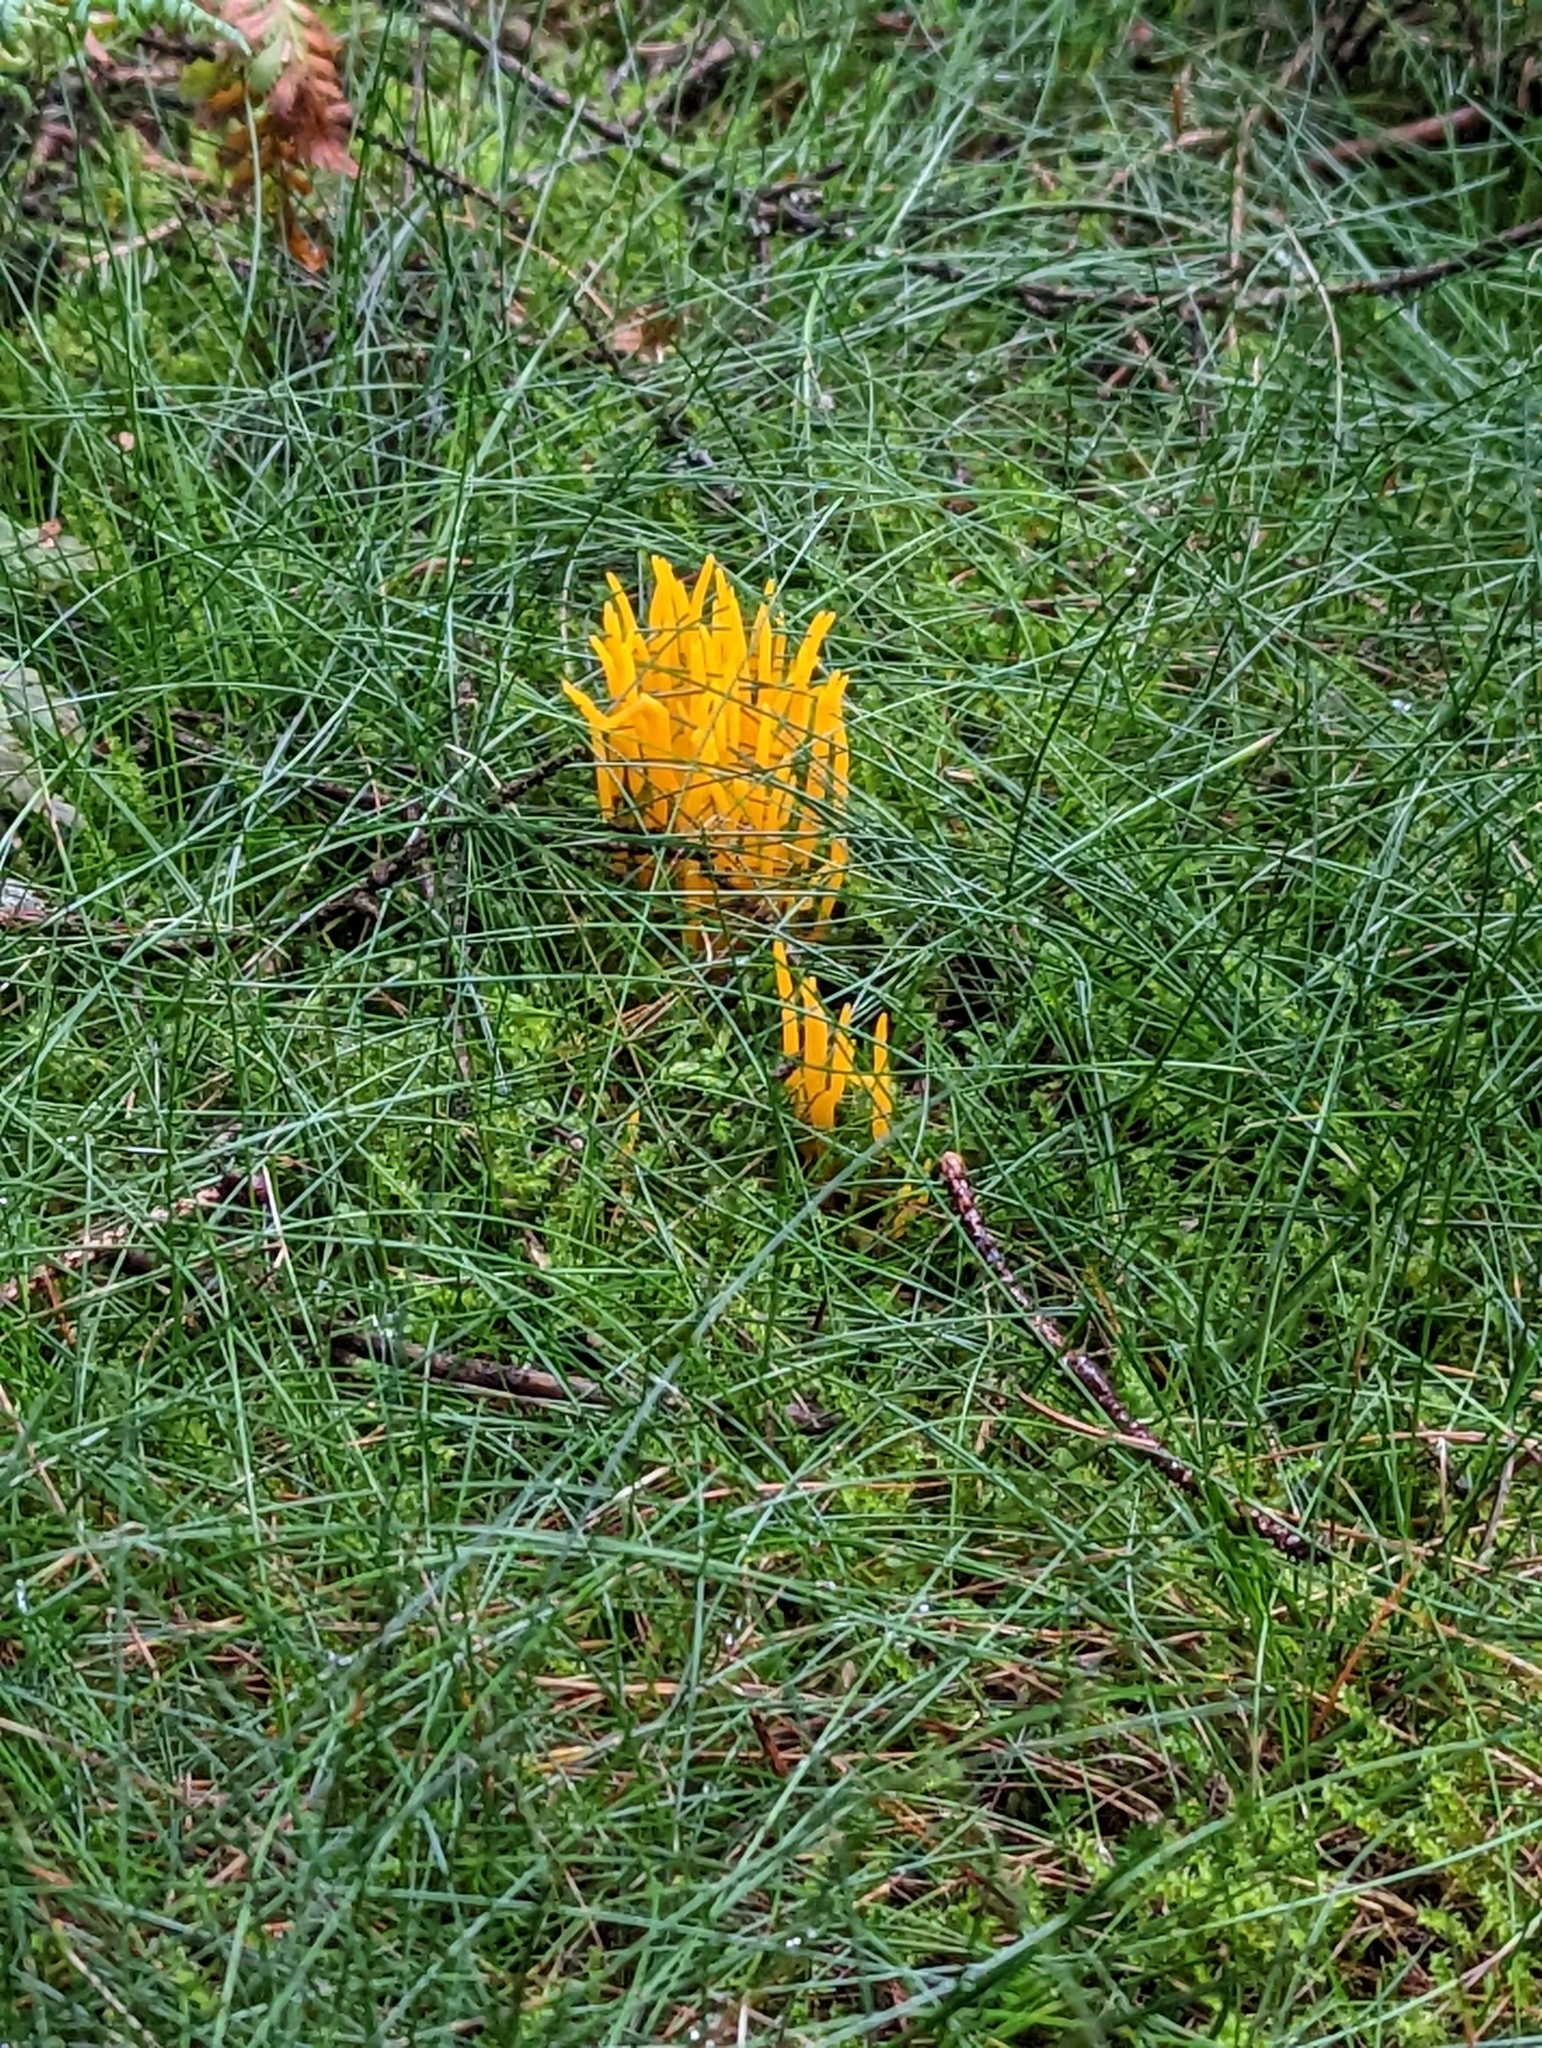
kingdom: Fungi
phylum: Basidiomycota
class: Dacrymycetes
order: Dacrymycetales
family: Dacrymycetaceae
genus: Calocera
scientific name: Calocera viscosa
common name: Yellow stagshorn
